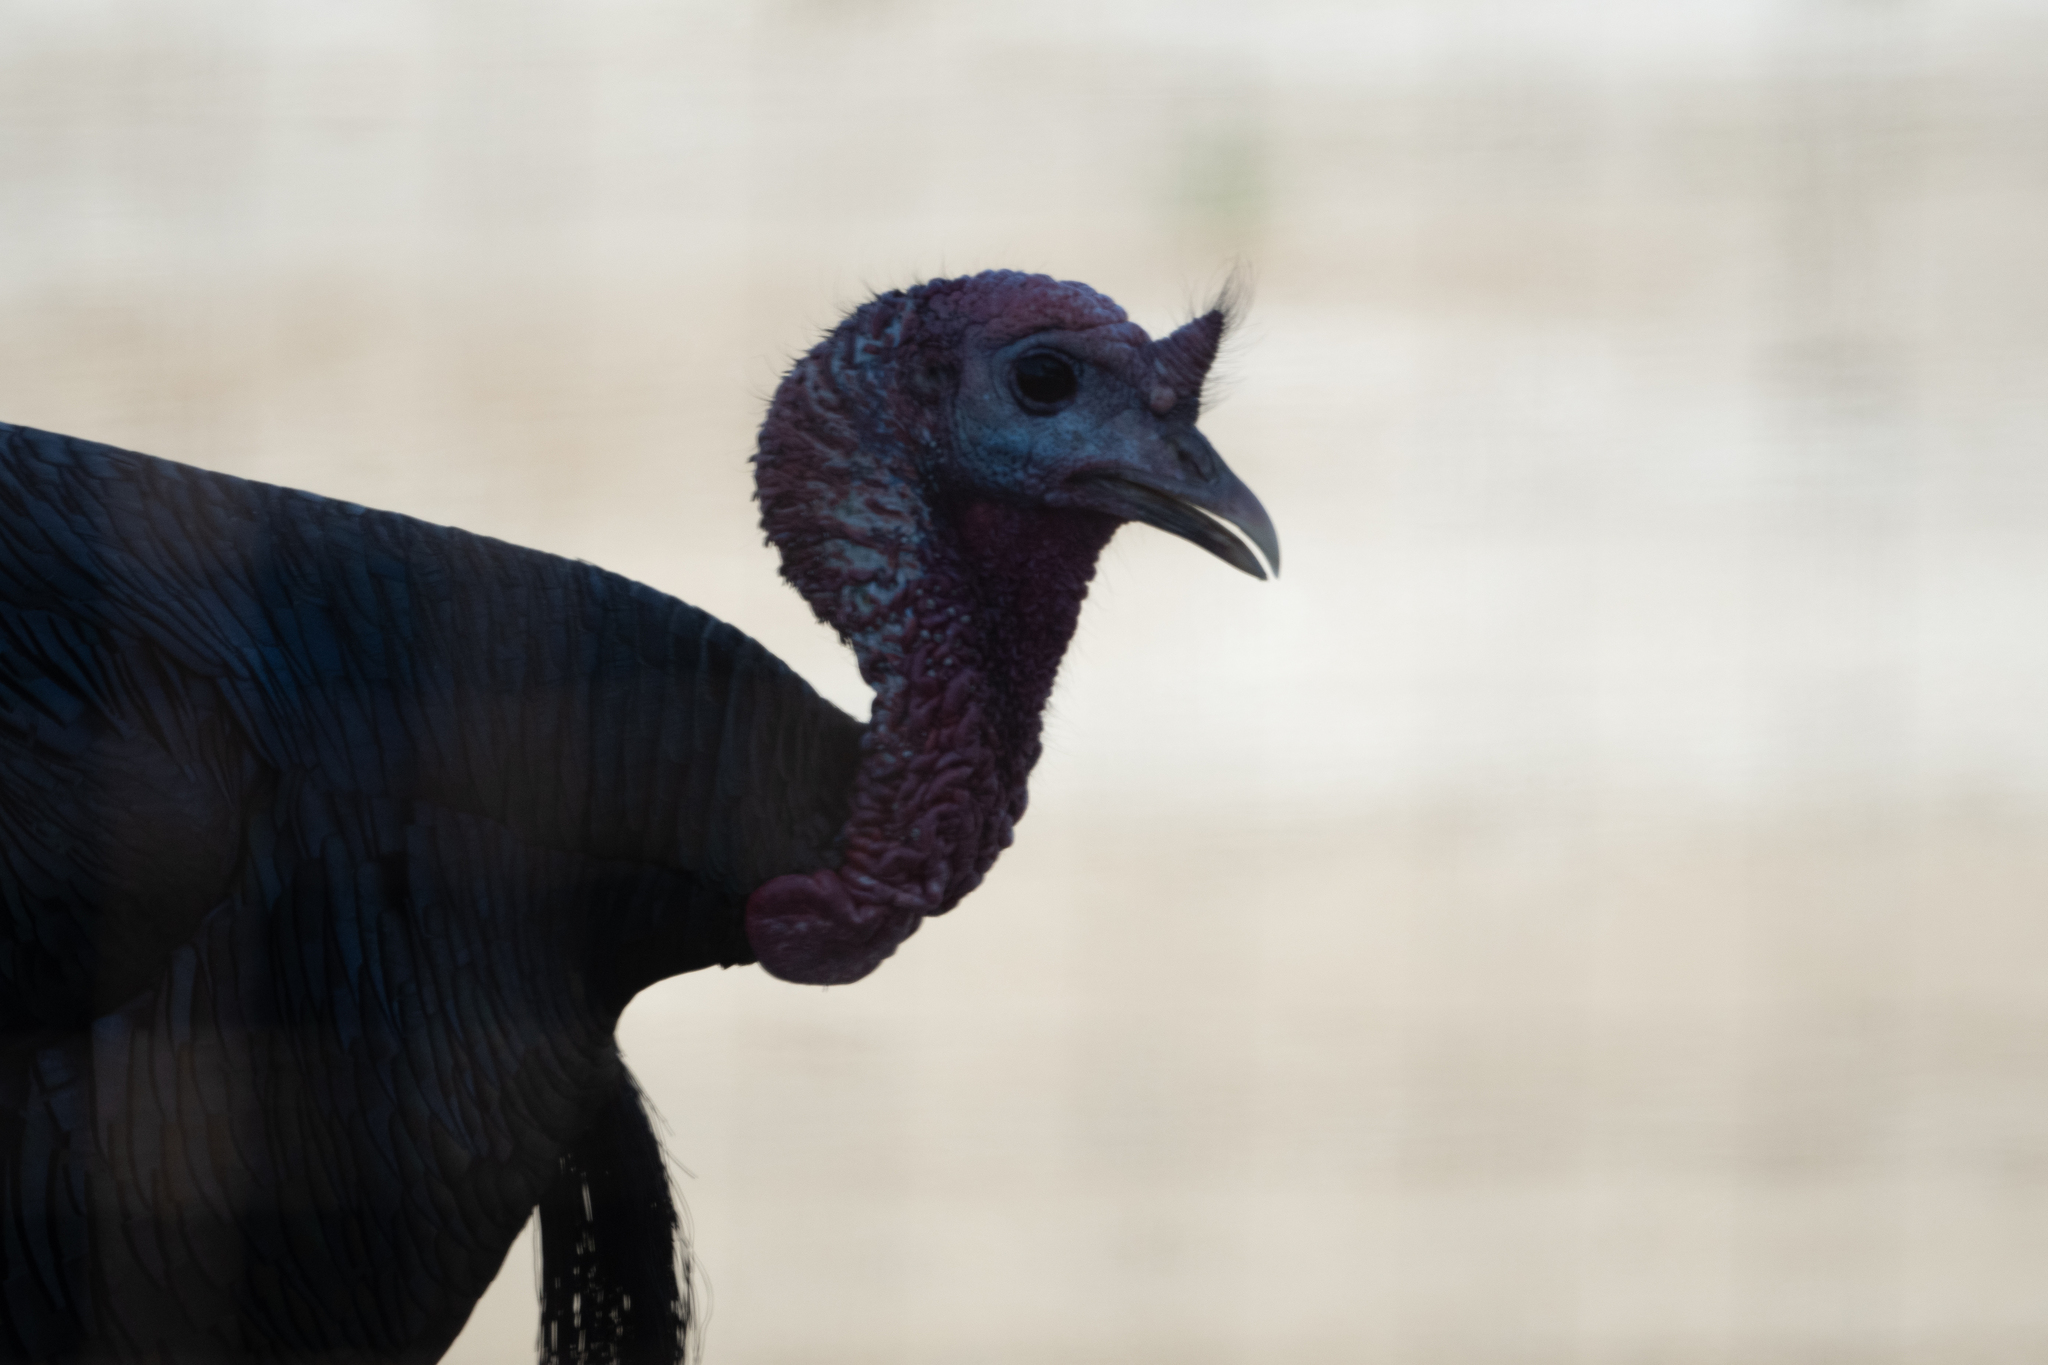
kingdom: Animalia
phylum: Chordata
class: Aves
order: Galliformes
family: Phasianidae
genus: Meleagris
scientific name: Meleagris gallopavo
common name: Wild turkey
